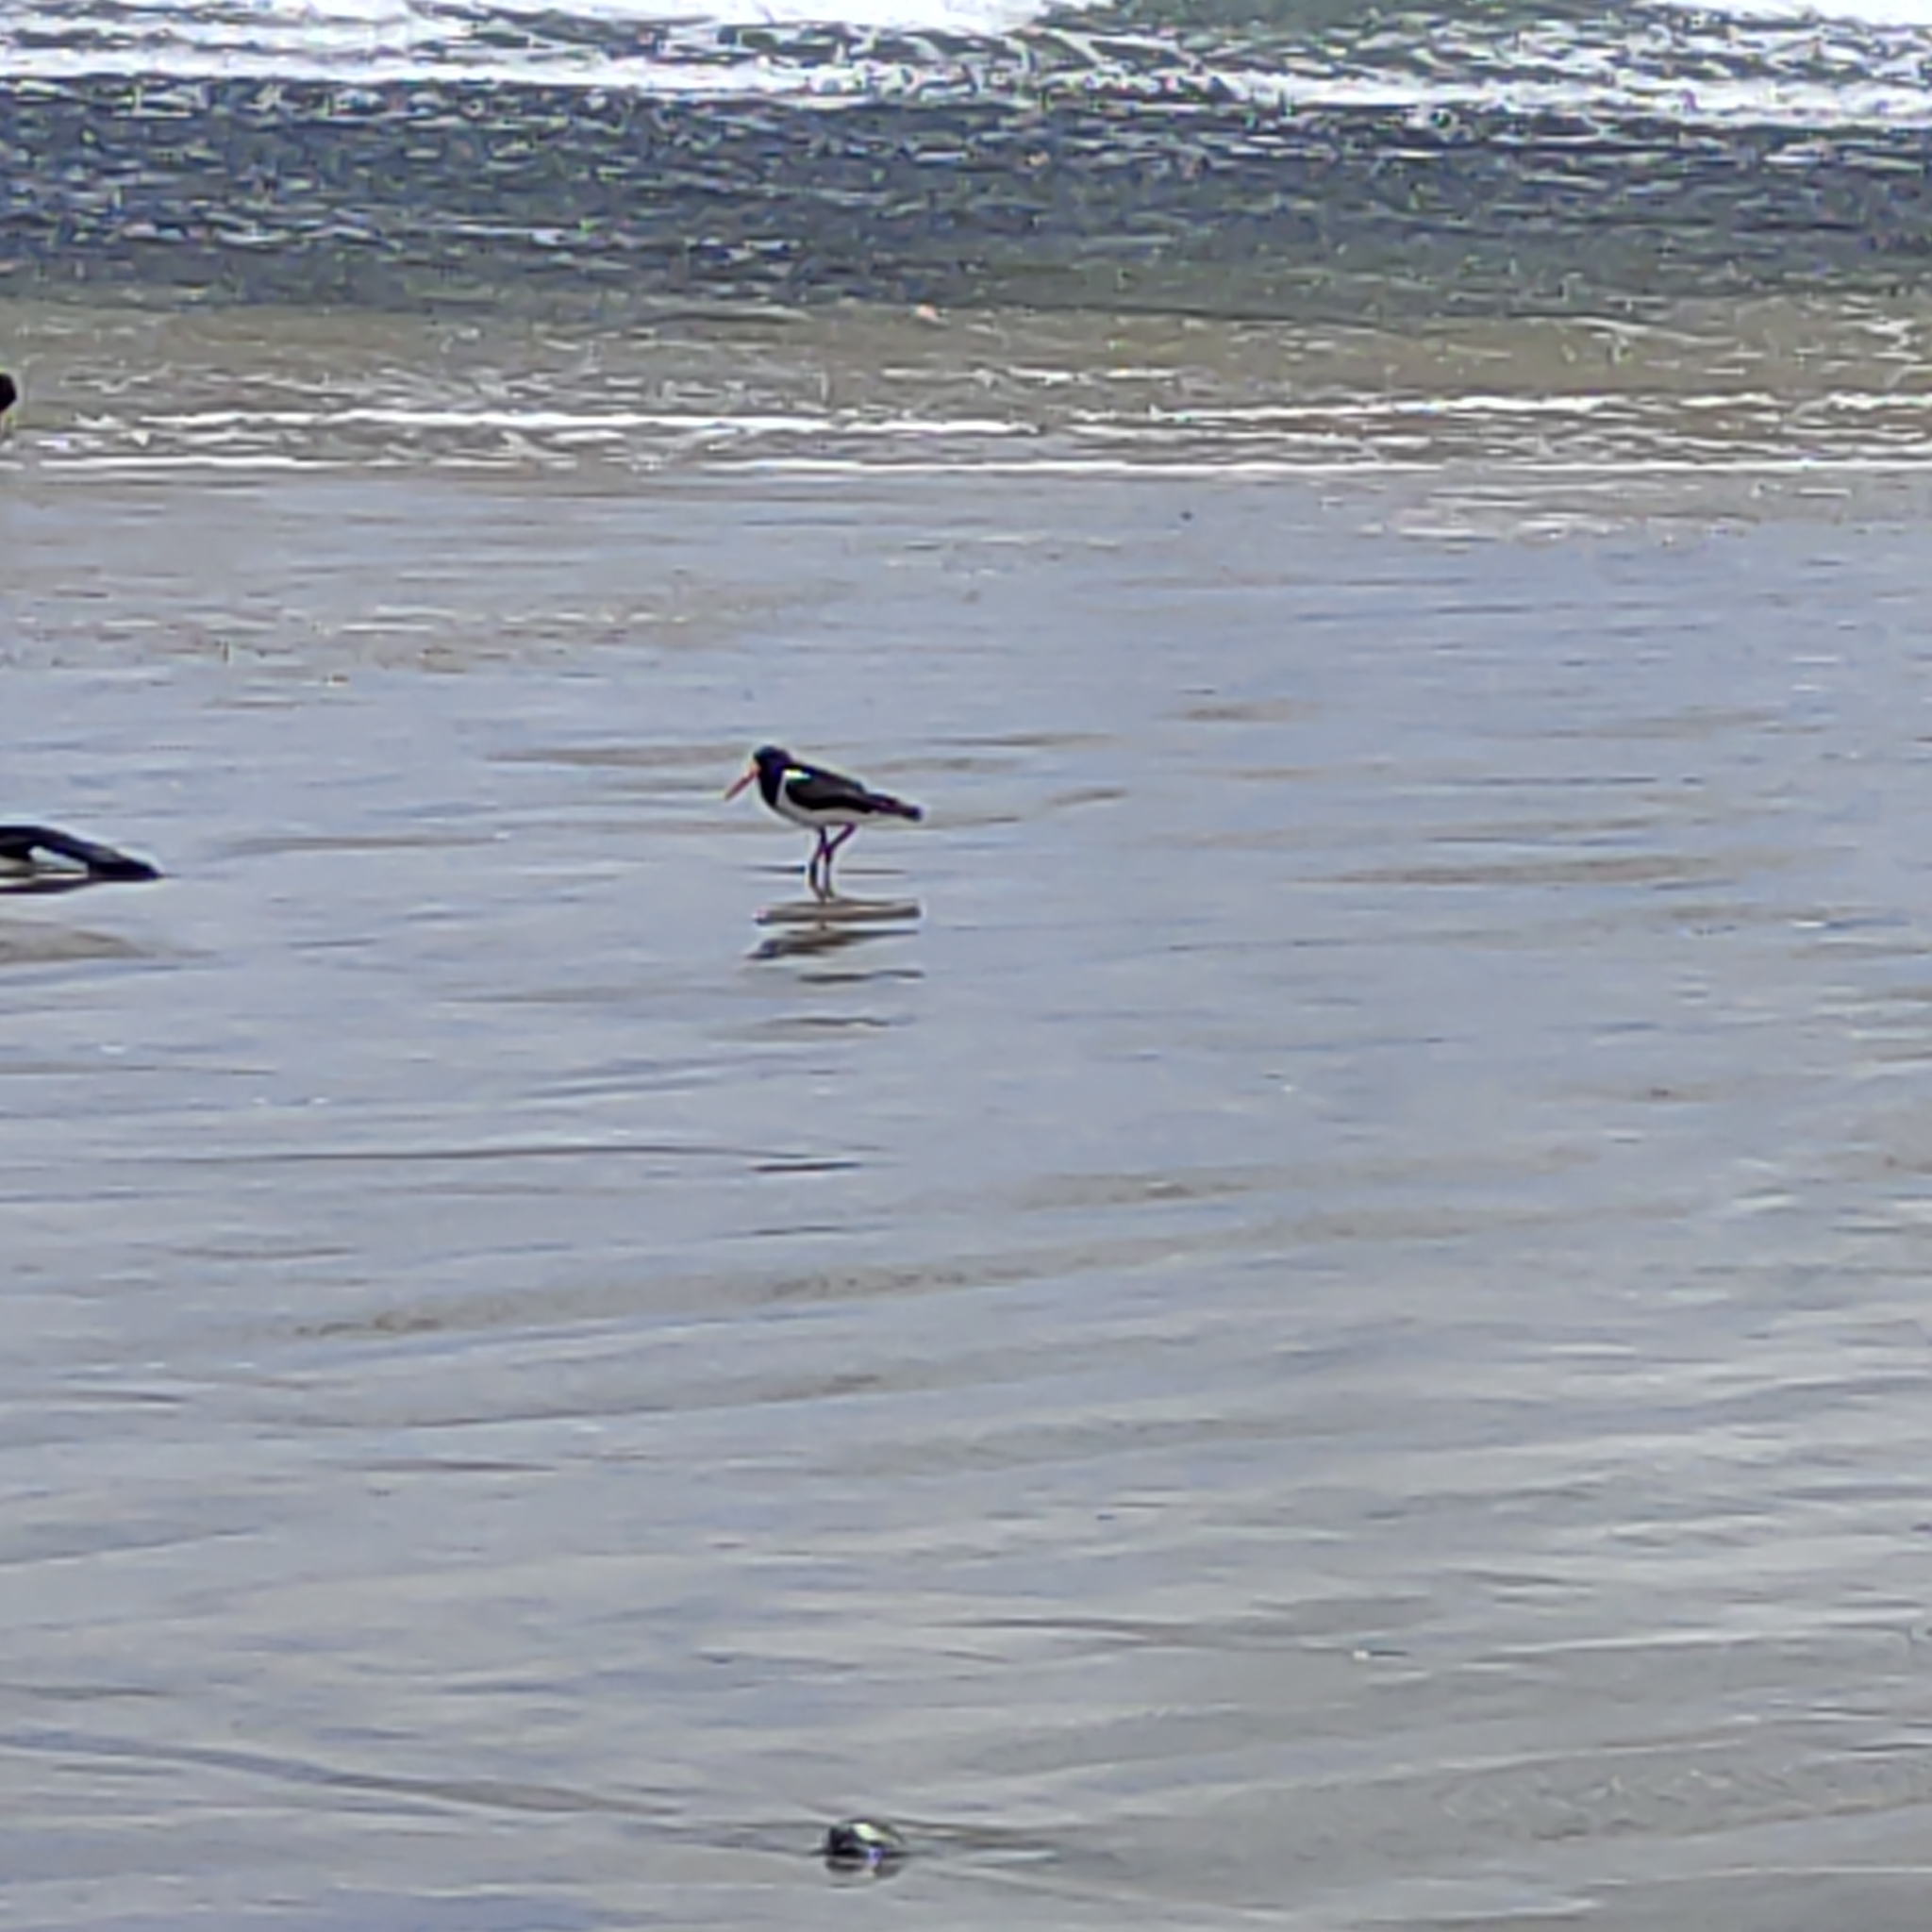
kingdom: Animalia
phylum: Chordata
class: Aves
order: Charadriiformes
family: Haematopodidae
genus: Haematopus
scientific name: Haematopus finschi
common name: South island oystercatcher
